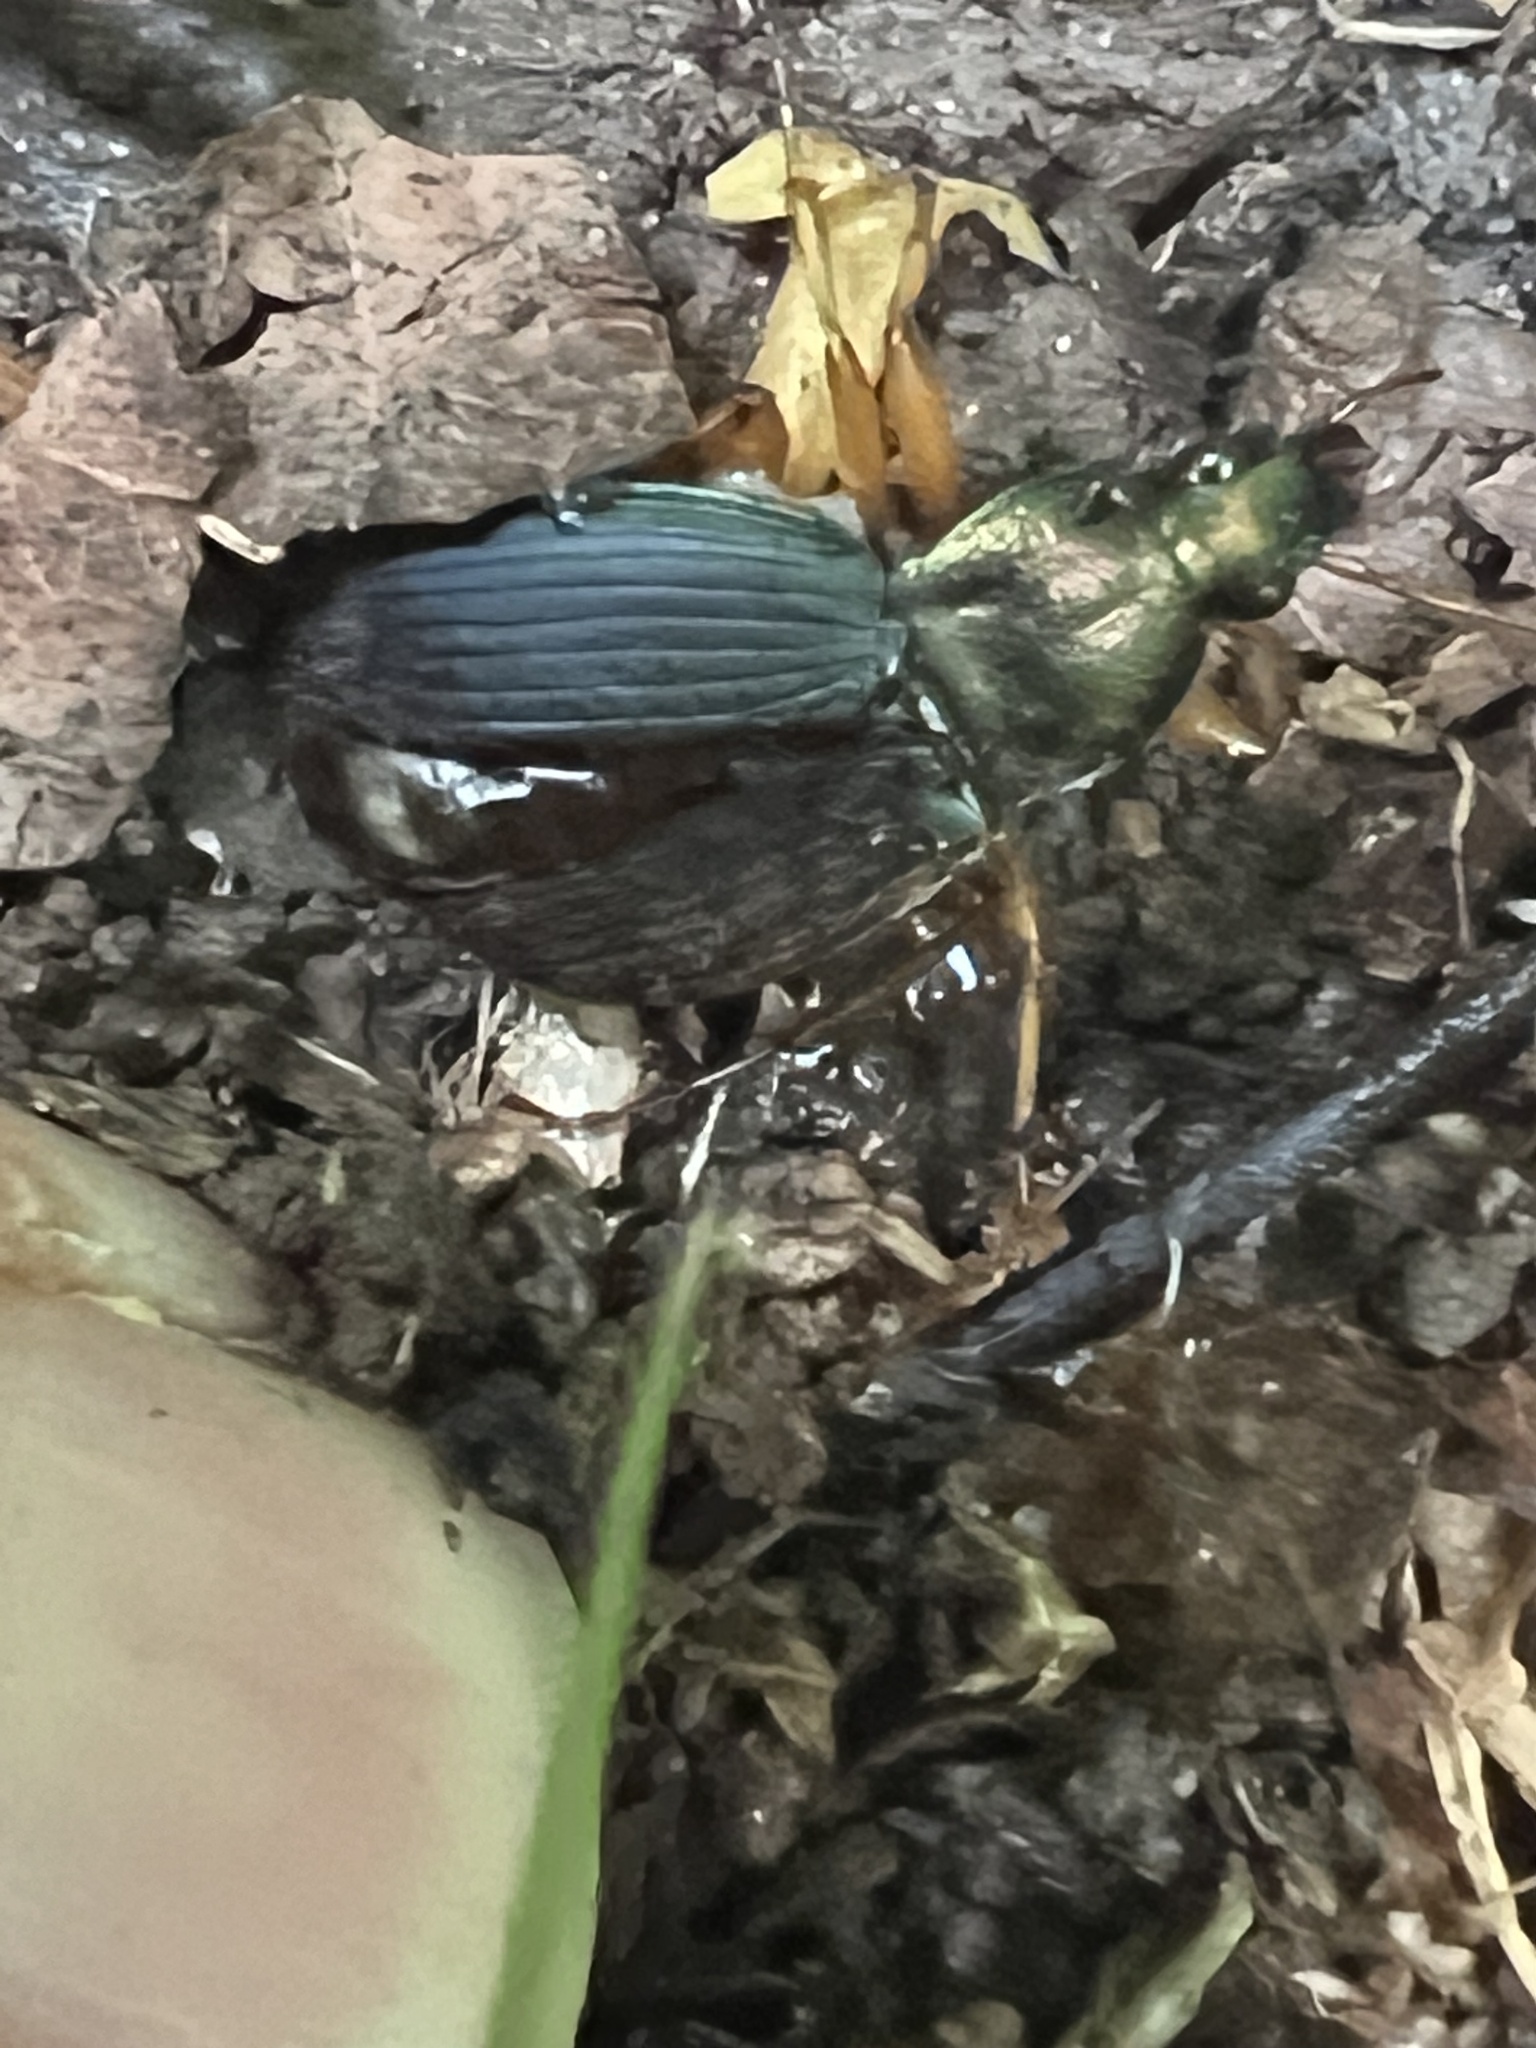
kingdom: Animalia
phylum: Arthropoda
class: Insecta
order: Coleoptera
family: Carabidae
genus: Chlaenius
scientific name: Chlaenius aestivus
